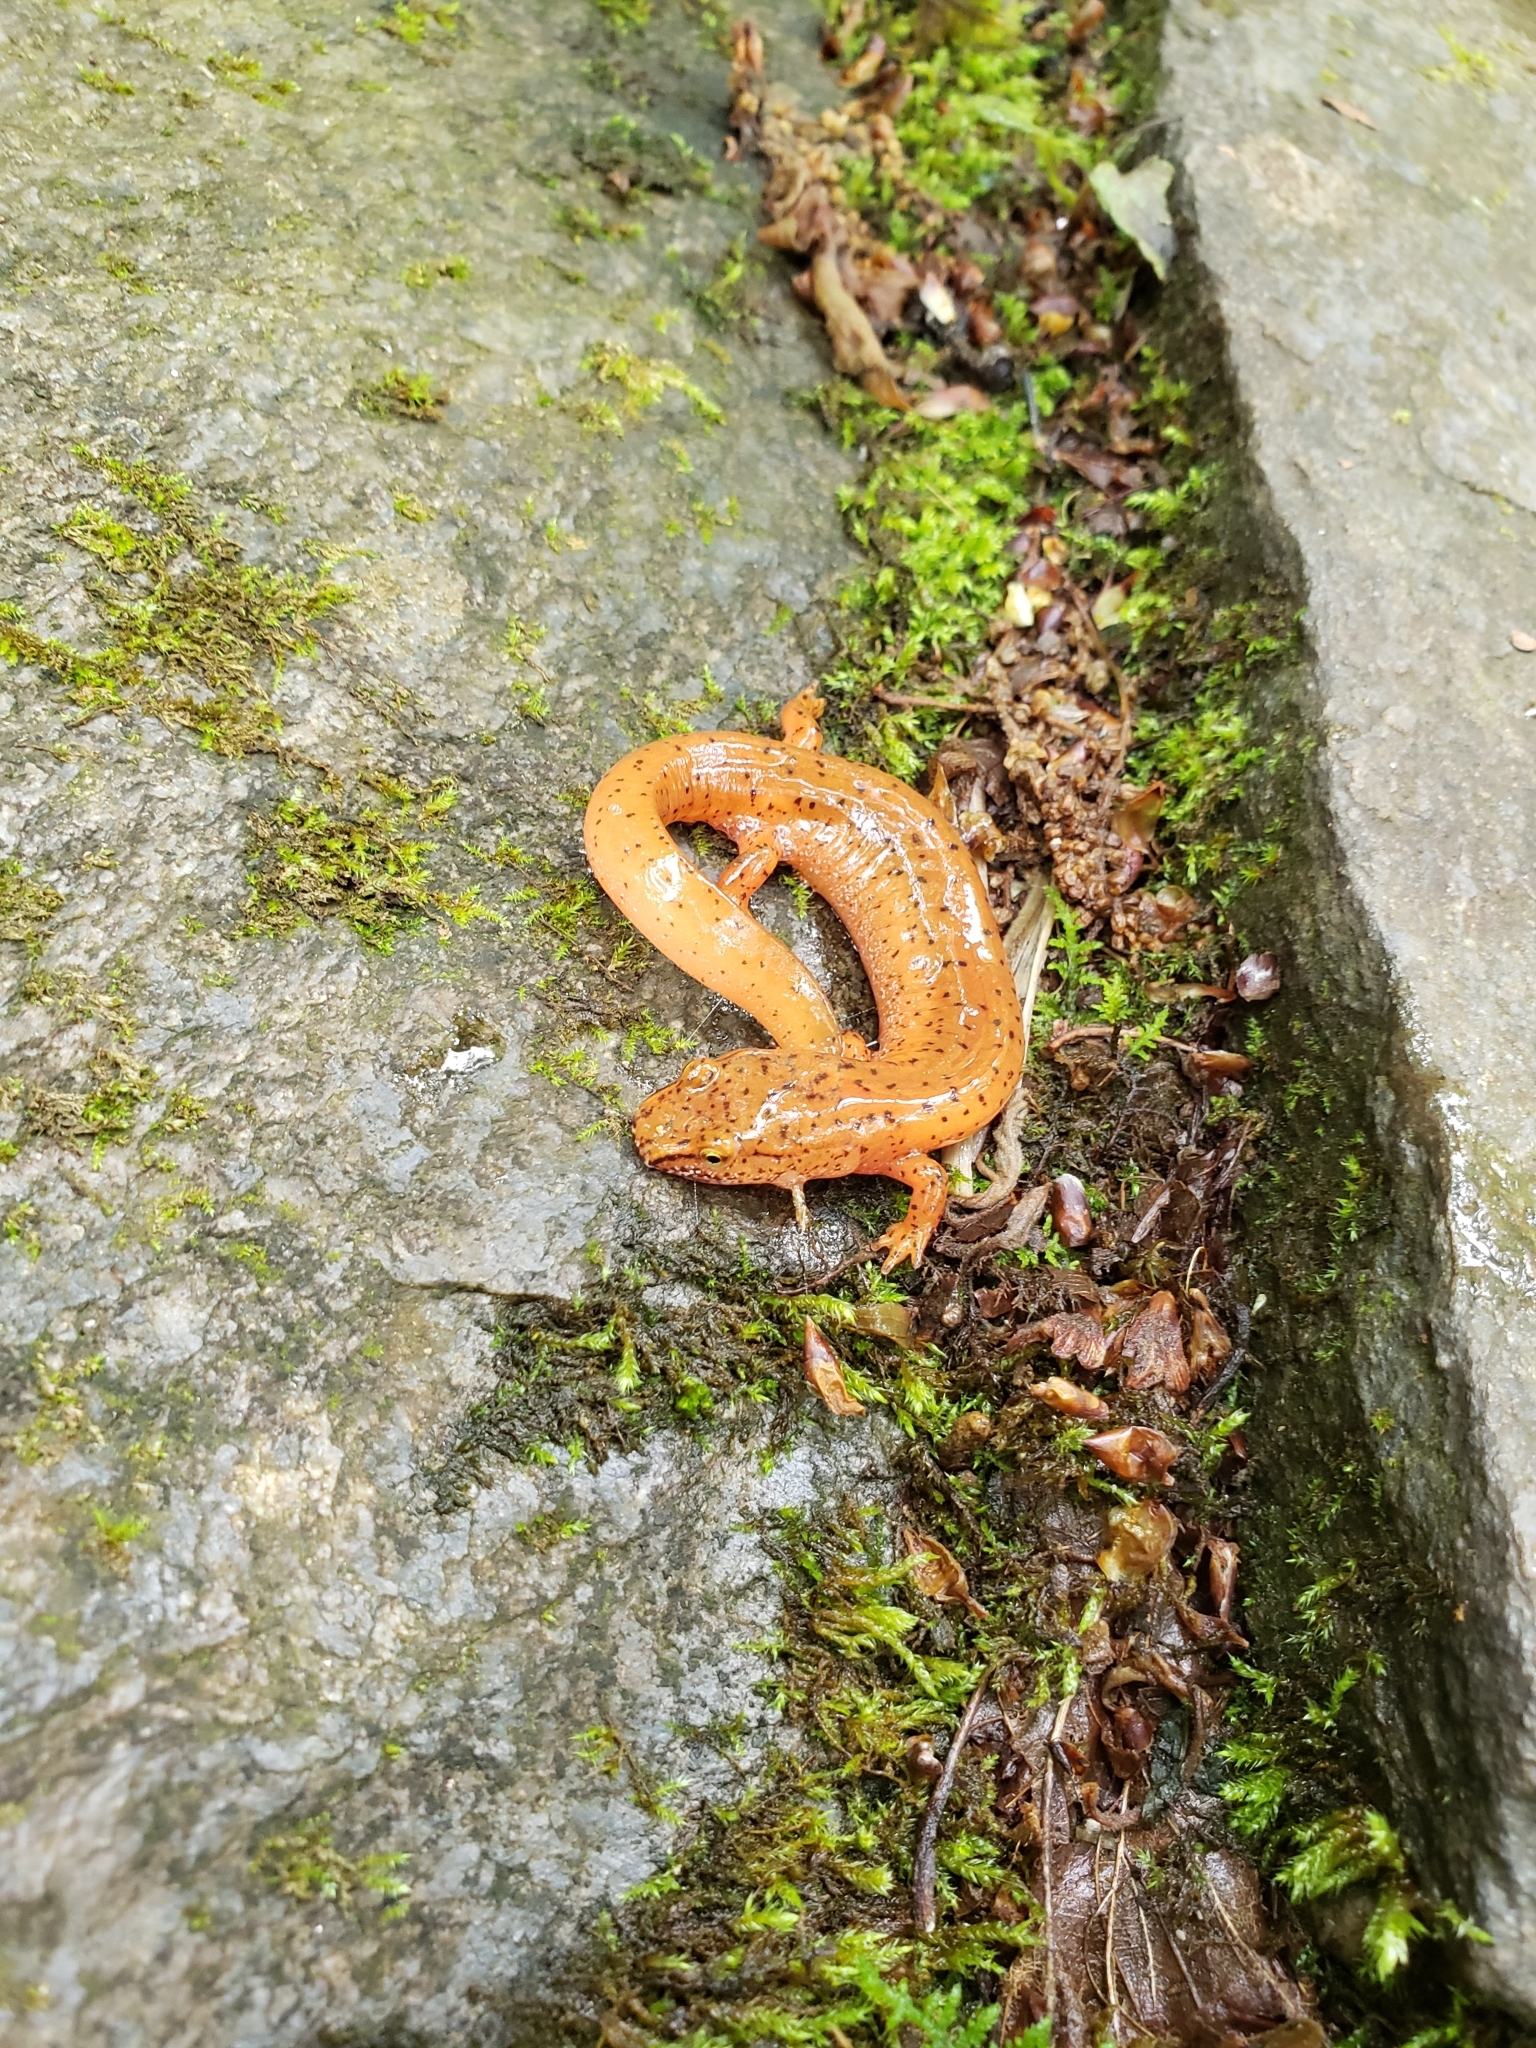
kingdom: Animalia
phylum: Chordata
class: Amphibia
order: Caudata
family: Plethodontidae
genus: Gyrinophilus
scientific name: Gyrinophilus porphyriticus
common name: Spring salamander
